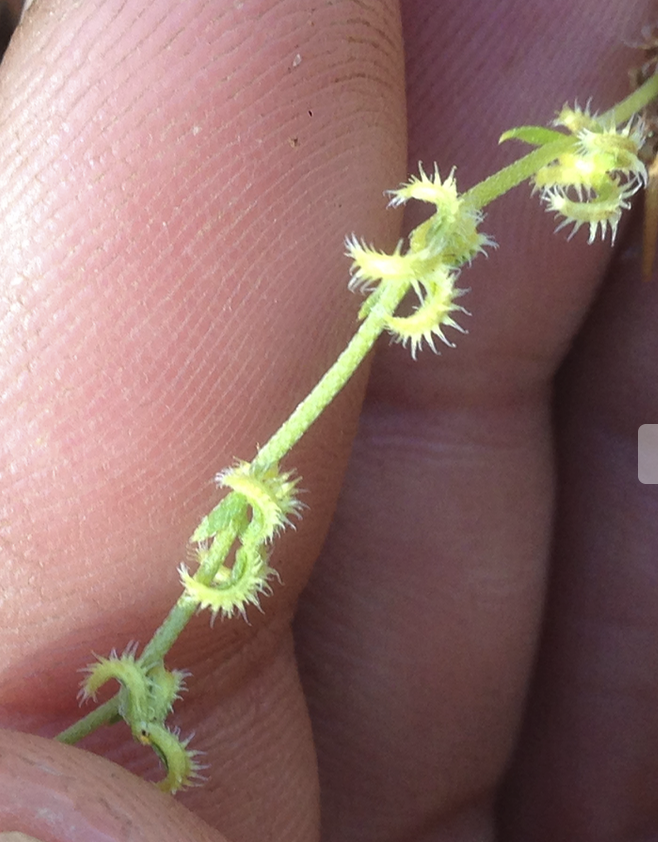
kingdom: Plantae
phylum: Tracheophyta
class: Magnoliopsida
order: Boraginales
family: Boraginaceae
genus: Pectocarya
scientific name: Pectocarya recurvata
